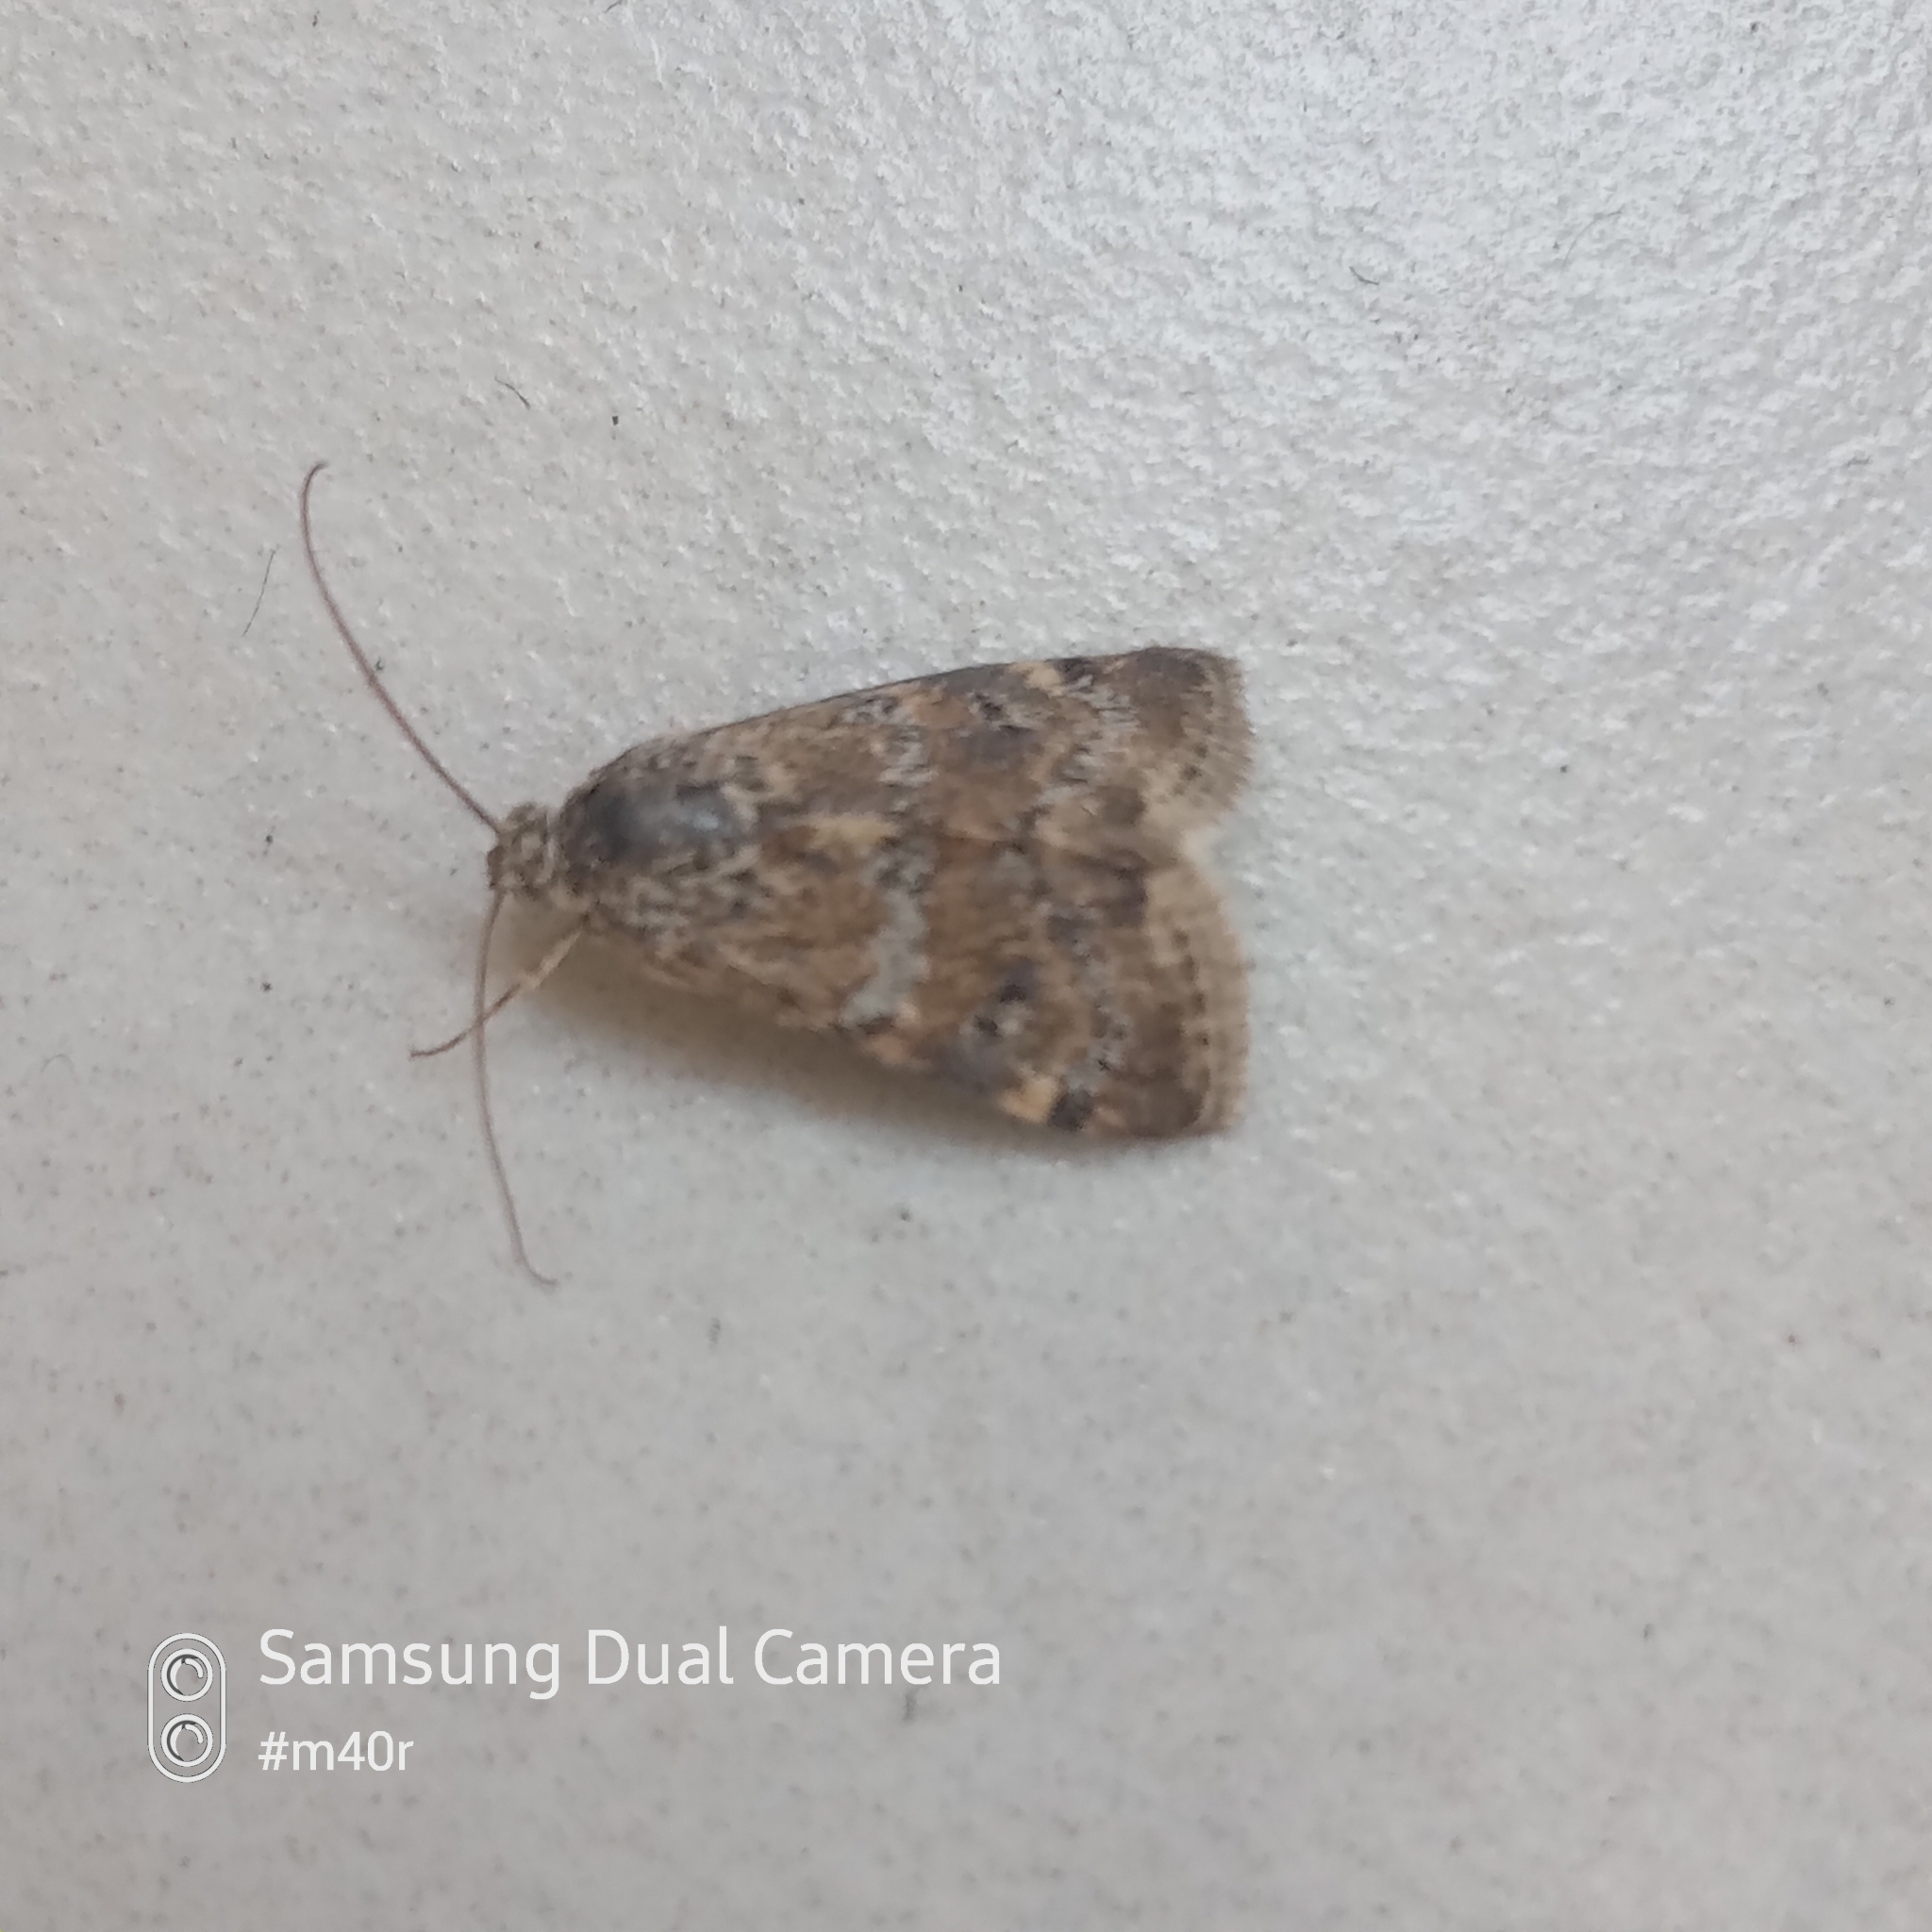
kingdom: Animalia
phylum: Arthropoda
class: Insecta
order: Lepidoptera
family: Crambidae
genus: Noctuelia
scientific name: Noctuelia Aporodes floralis
